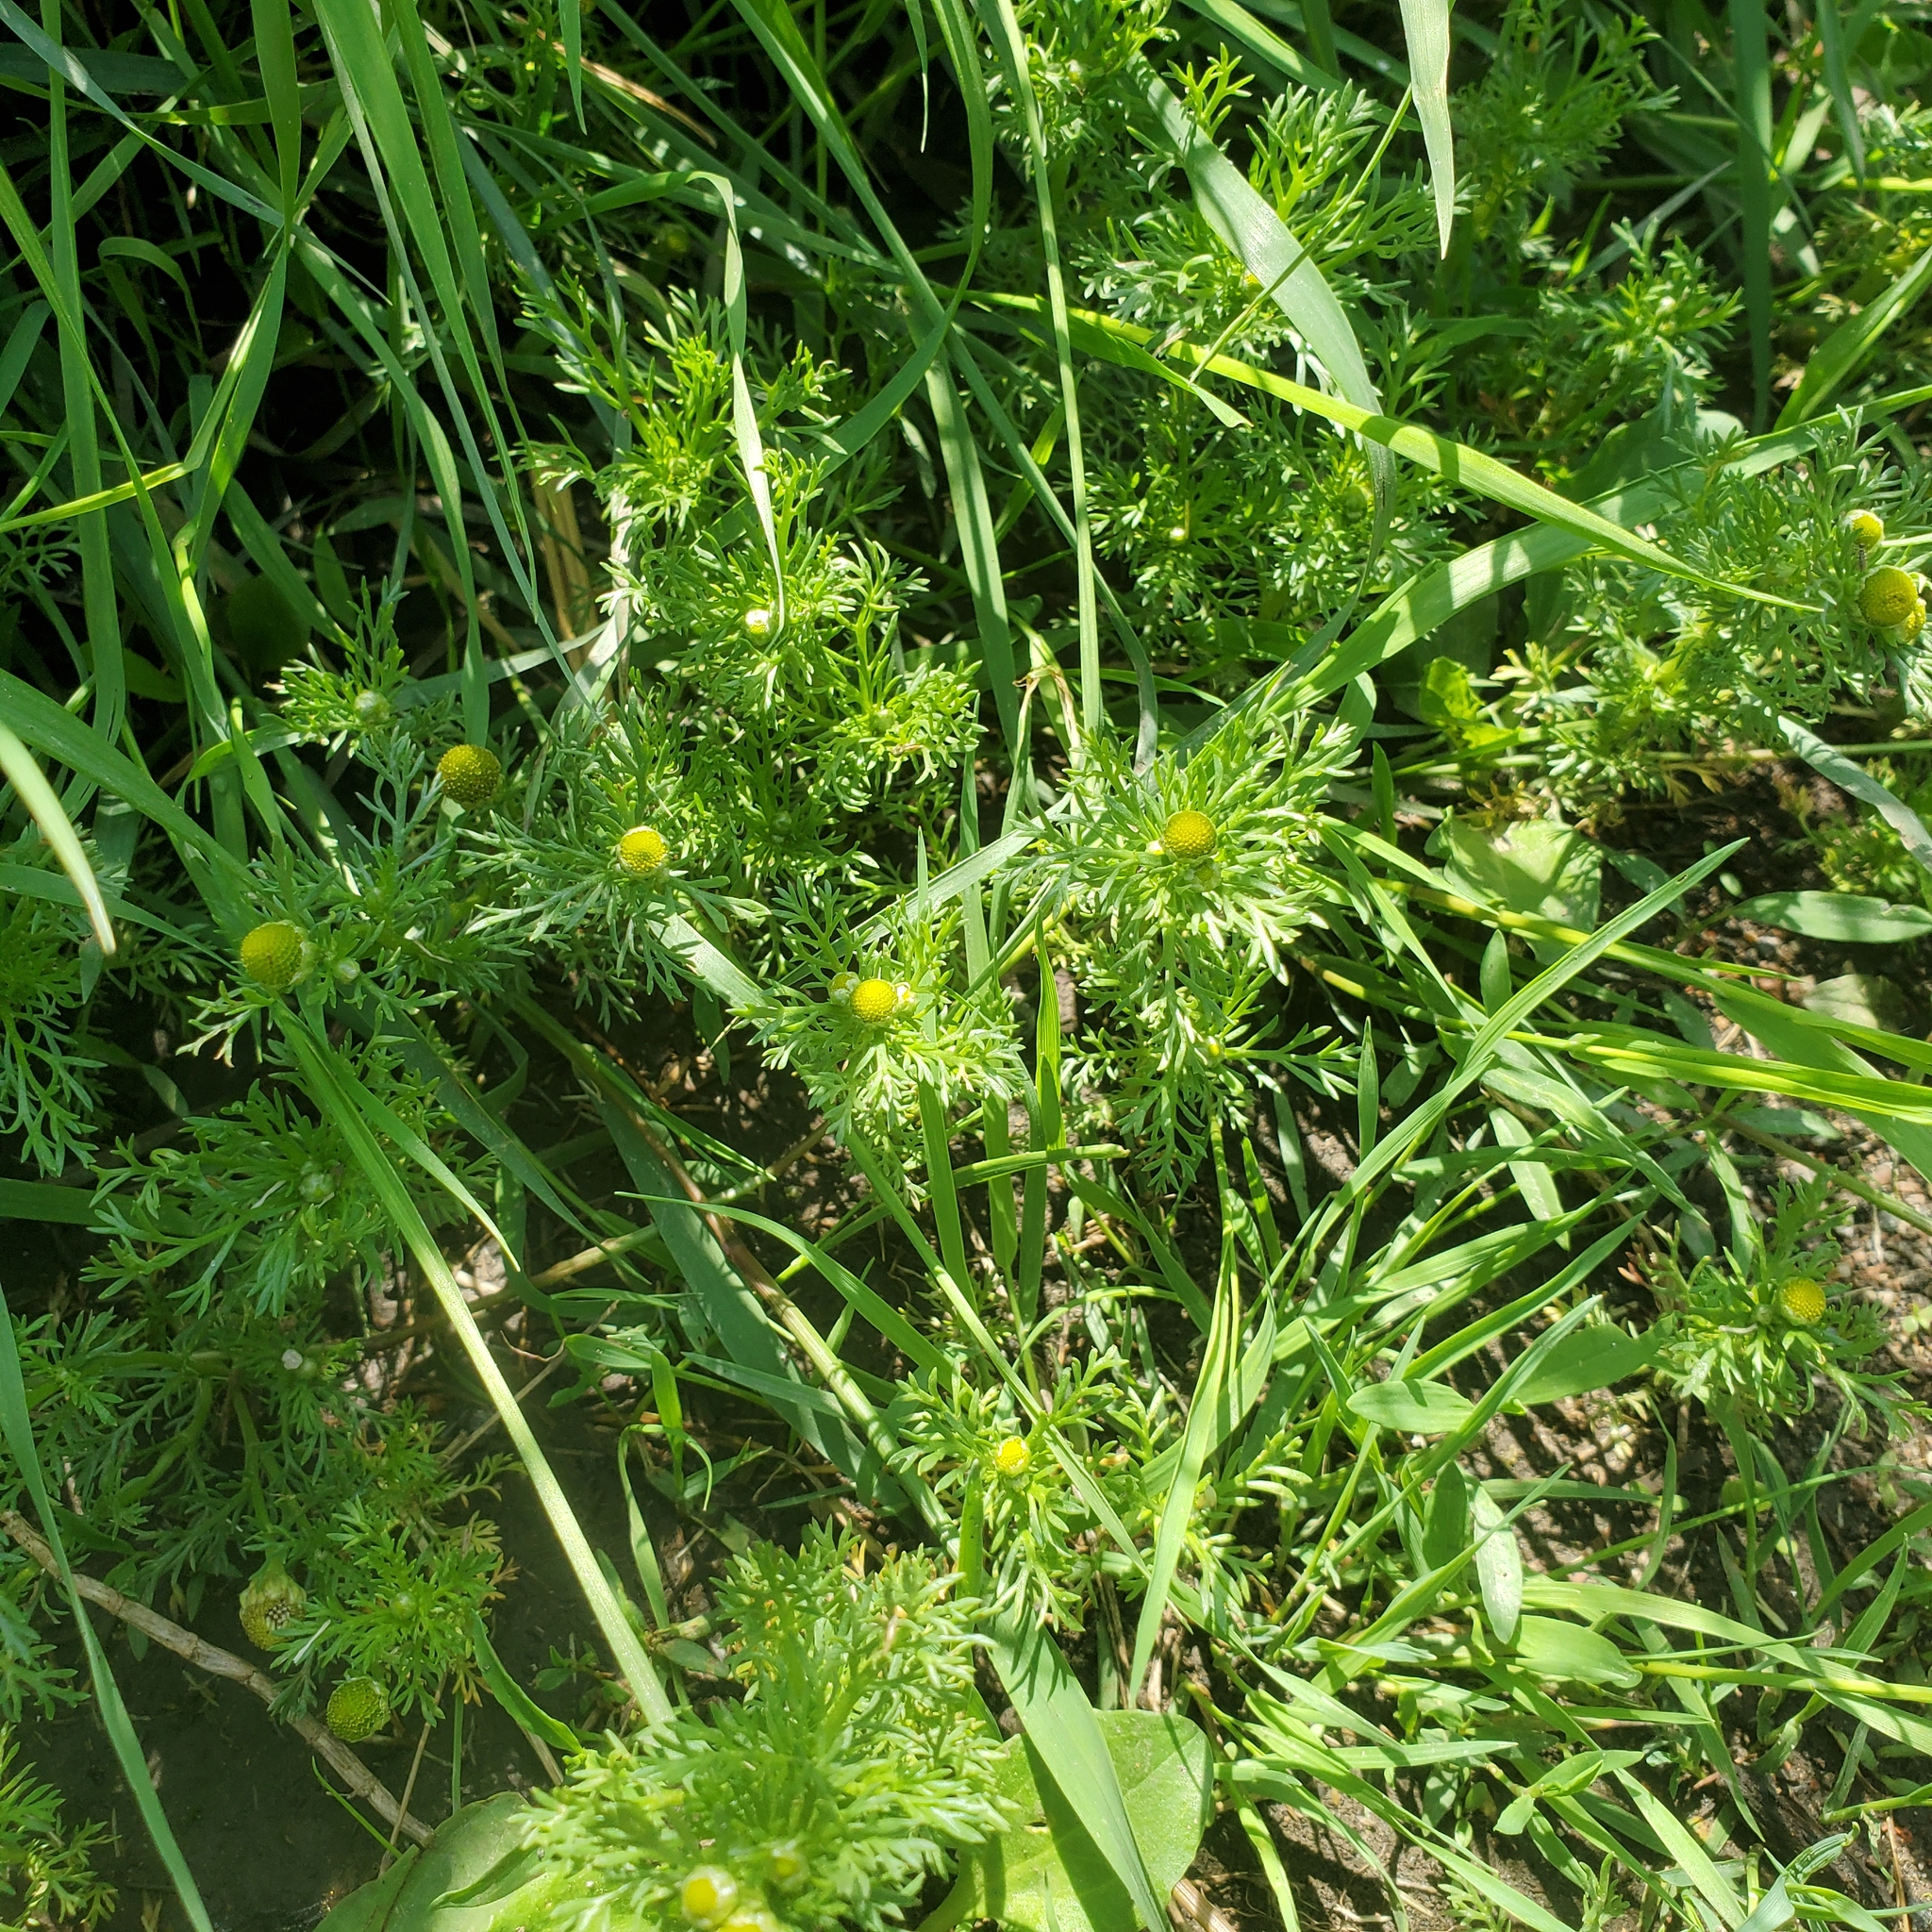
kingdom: Plantae
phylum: Tracheophyta
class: Magnoliopsida
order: Asterales
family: Asteraceae
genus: Matricaria
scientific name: Matricaria discoidea
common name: Disc mayweed
